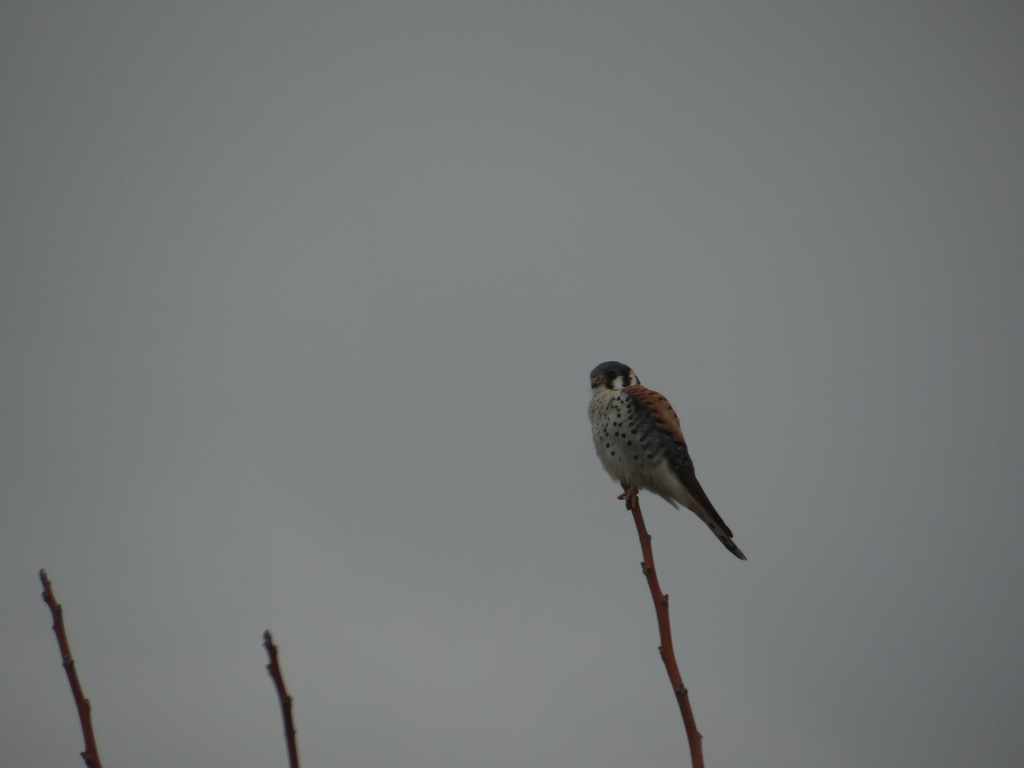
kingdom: Animalia
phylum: Chordata
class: Aves
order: Falconiformes
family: Falconidae
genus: Falco
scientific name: Falco sparverius
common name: American kestrel
